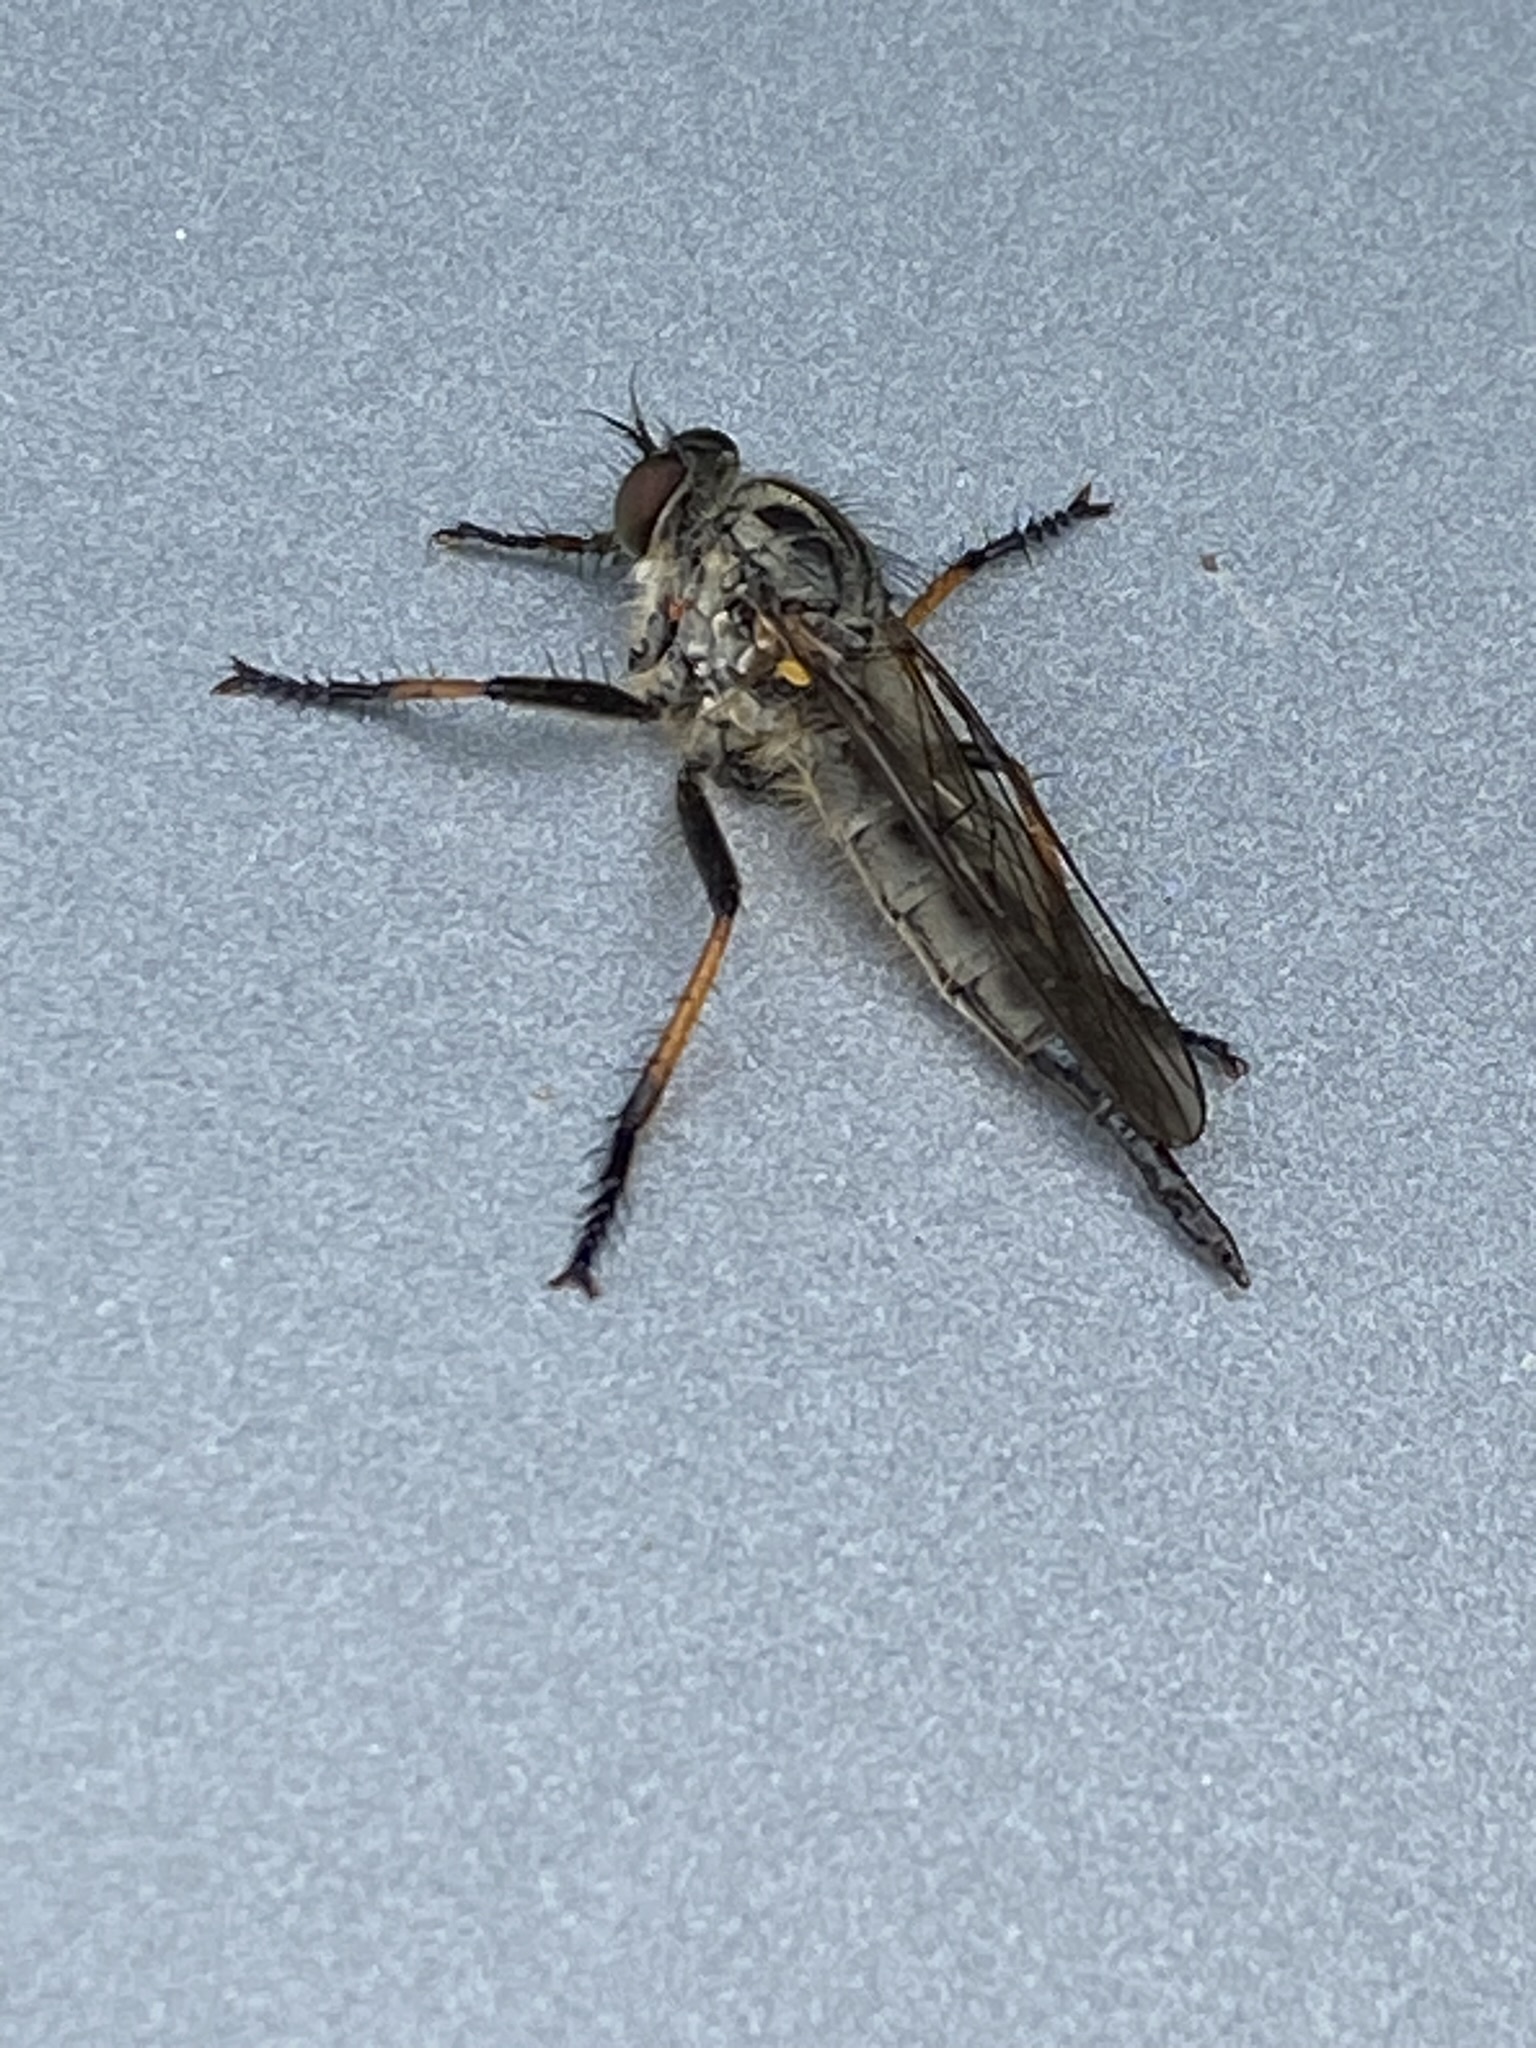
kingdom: Animalia
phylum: Arthropoda
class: Insecta
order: Diptera
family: Asilidae
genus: Neoitamus
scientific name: Neoitamus cyanurus
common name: Common awl robberfly
